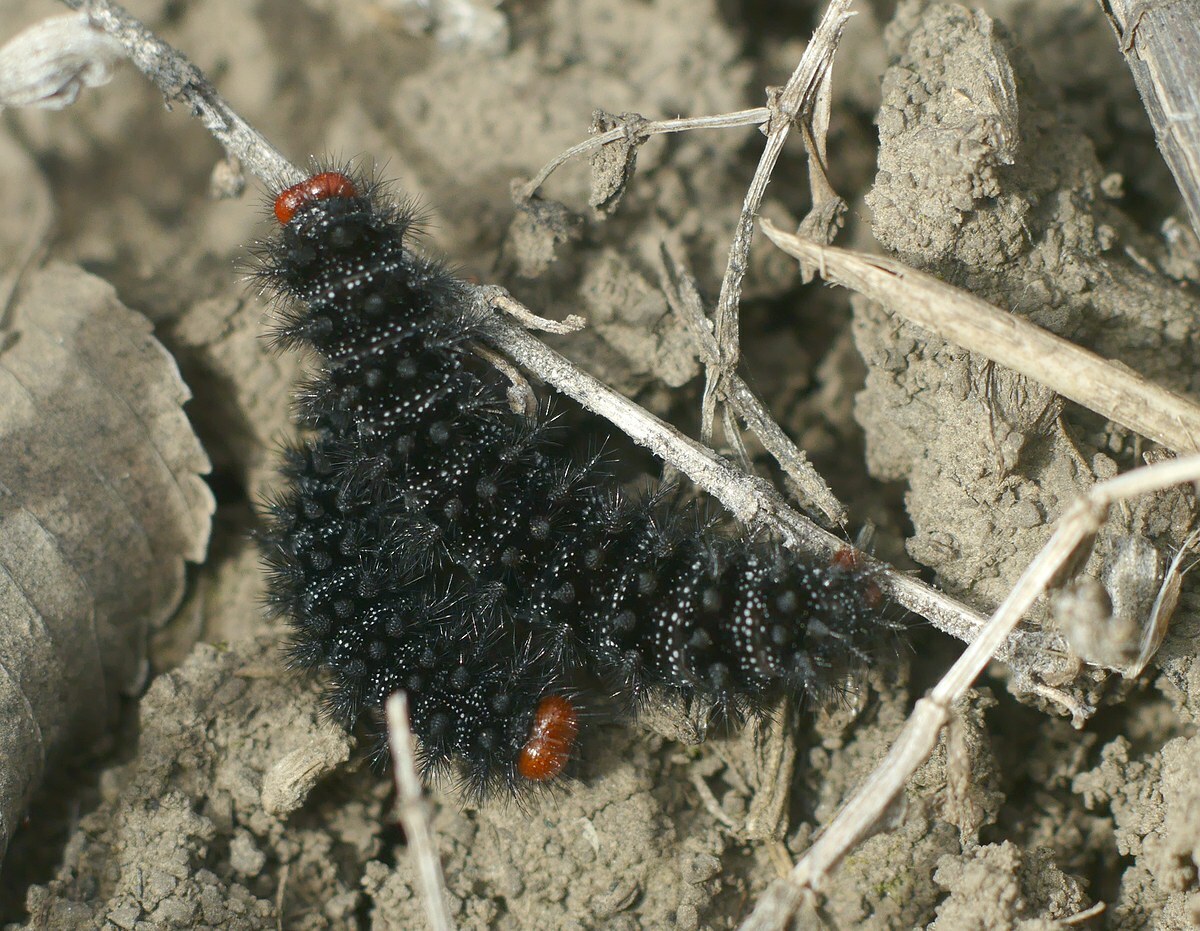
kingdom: Animalia
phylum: Arthropoda
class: Insecta
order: Lepidoptera
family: Nymphalidae
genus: Melitaea
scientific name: Melitaea cinxia
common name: Glanville fritillary
